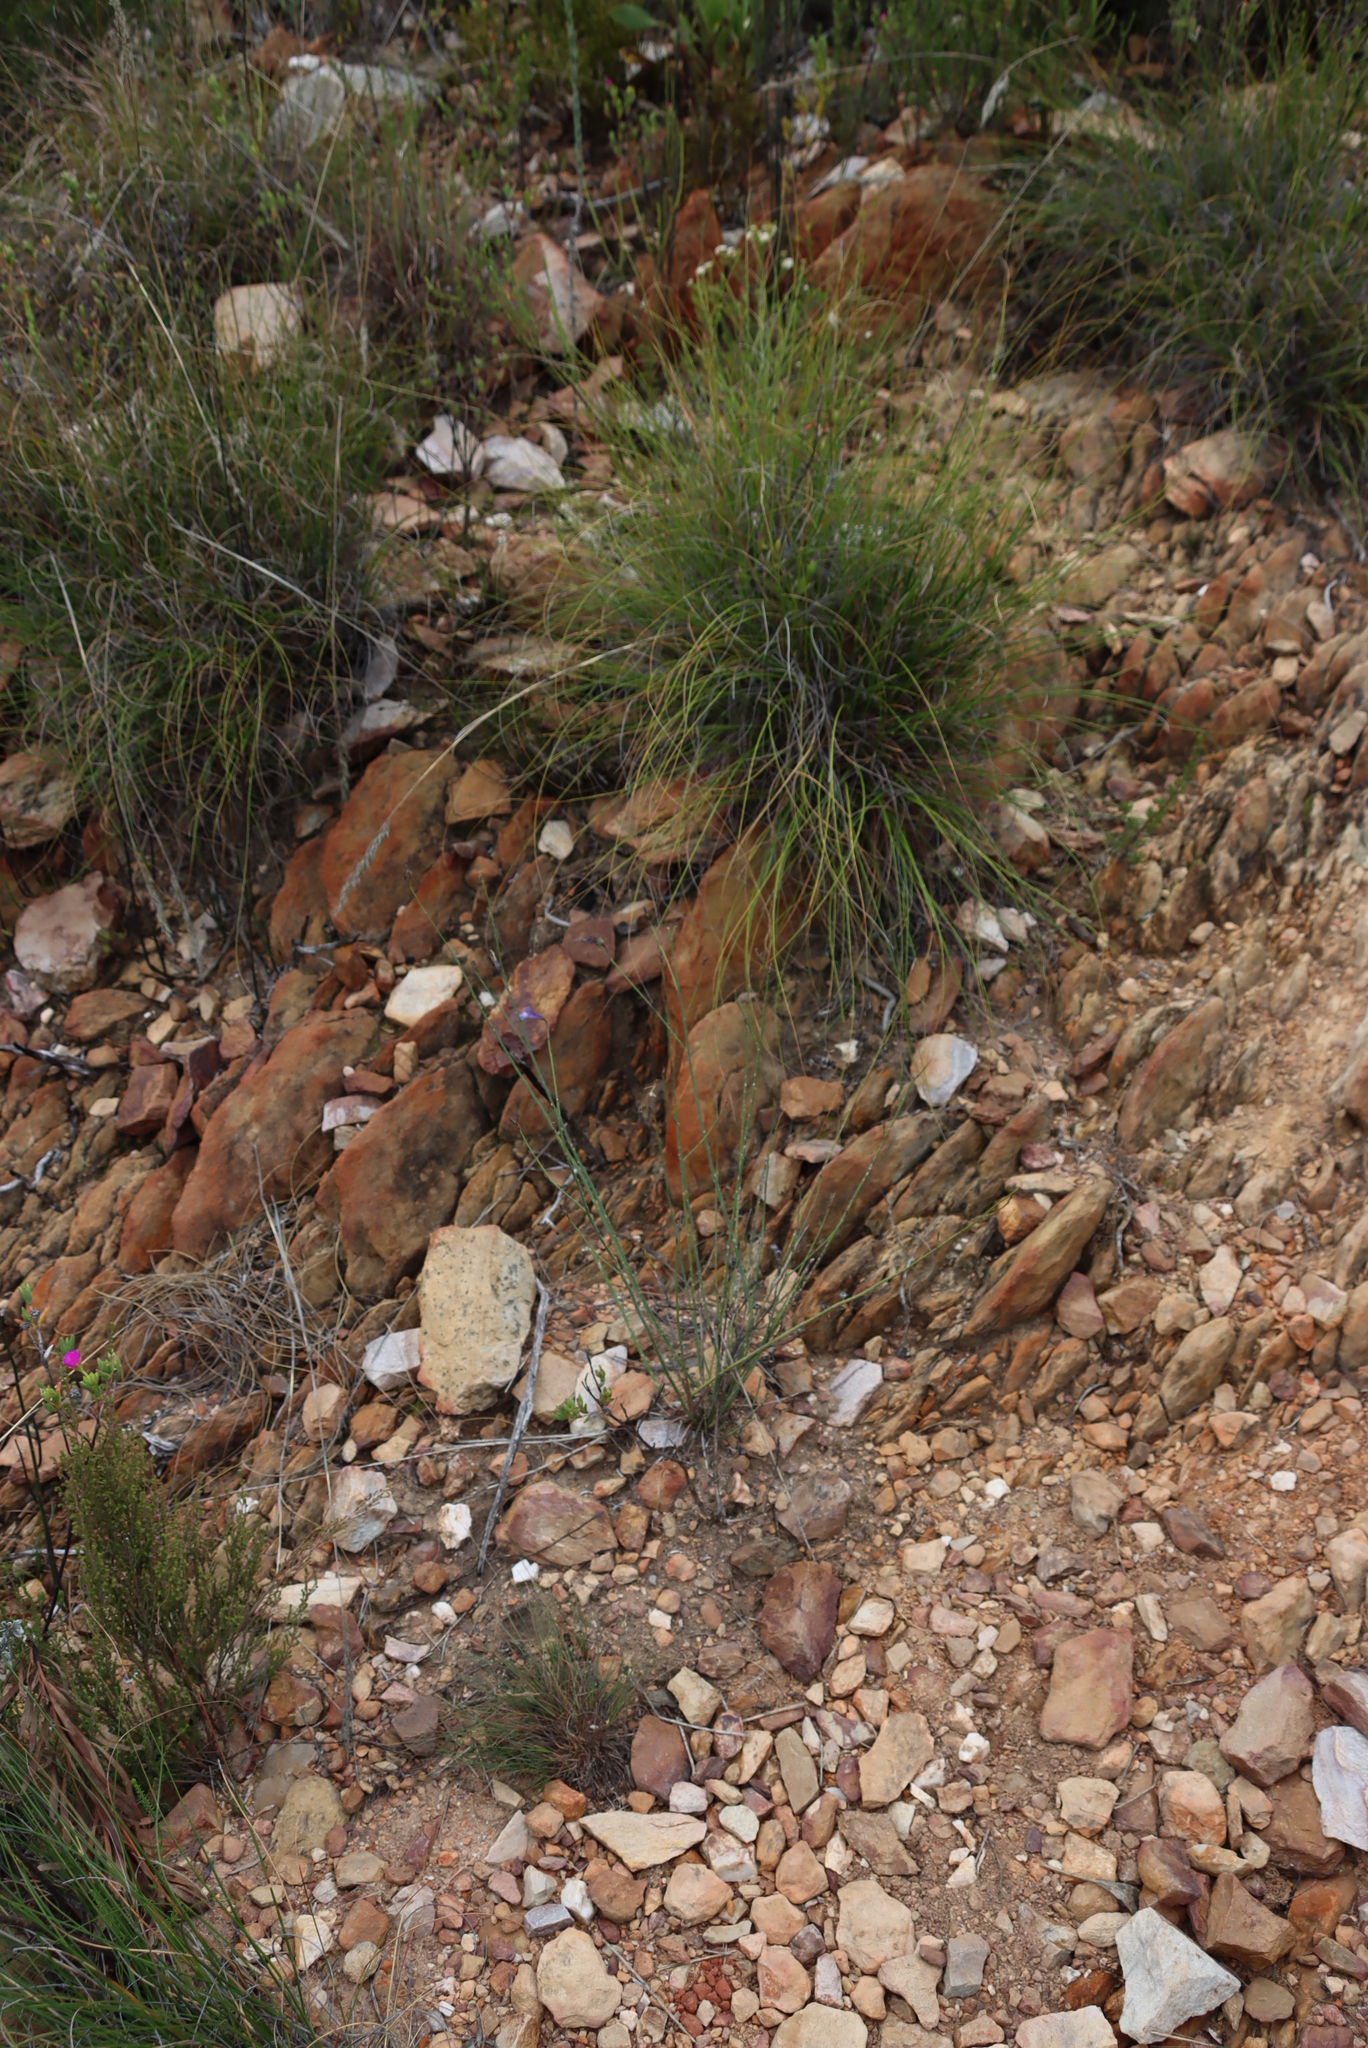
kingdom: Plantae
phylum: Tracheophyta
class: Magnoliopsida
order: Asterales
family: Campanulaceae
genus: Lobelia
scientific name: Lobelia linearis
